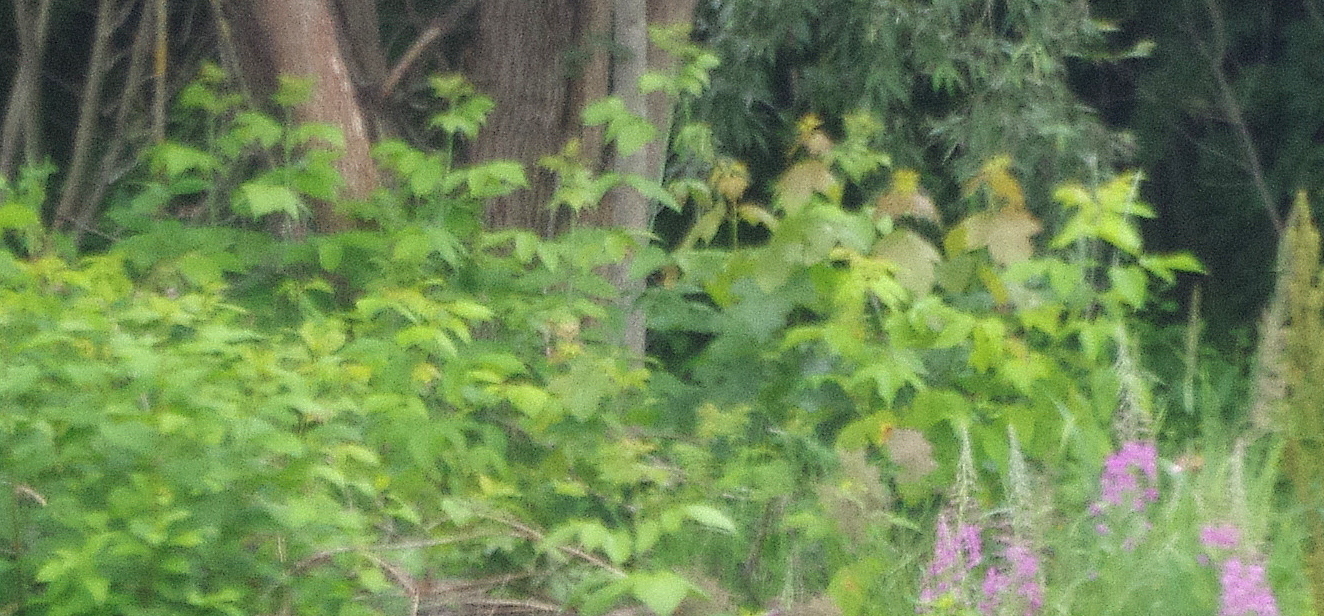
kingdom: Plantae
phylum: Tracheophyta
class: Magnoliopsida
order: Sapindales
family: Sapindaceae
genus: Acer
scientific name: Acer negundo
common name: Ashleaf maple
